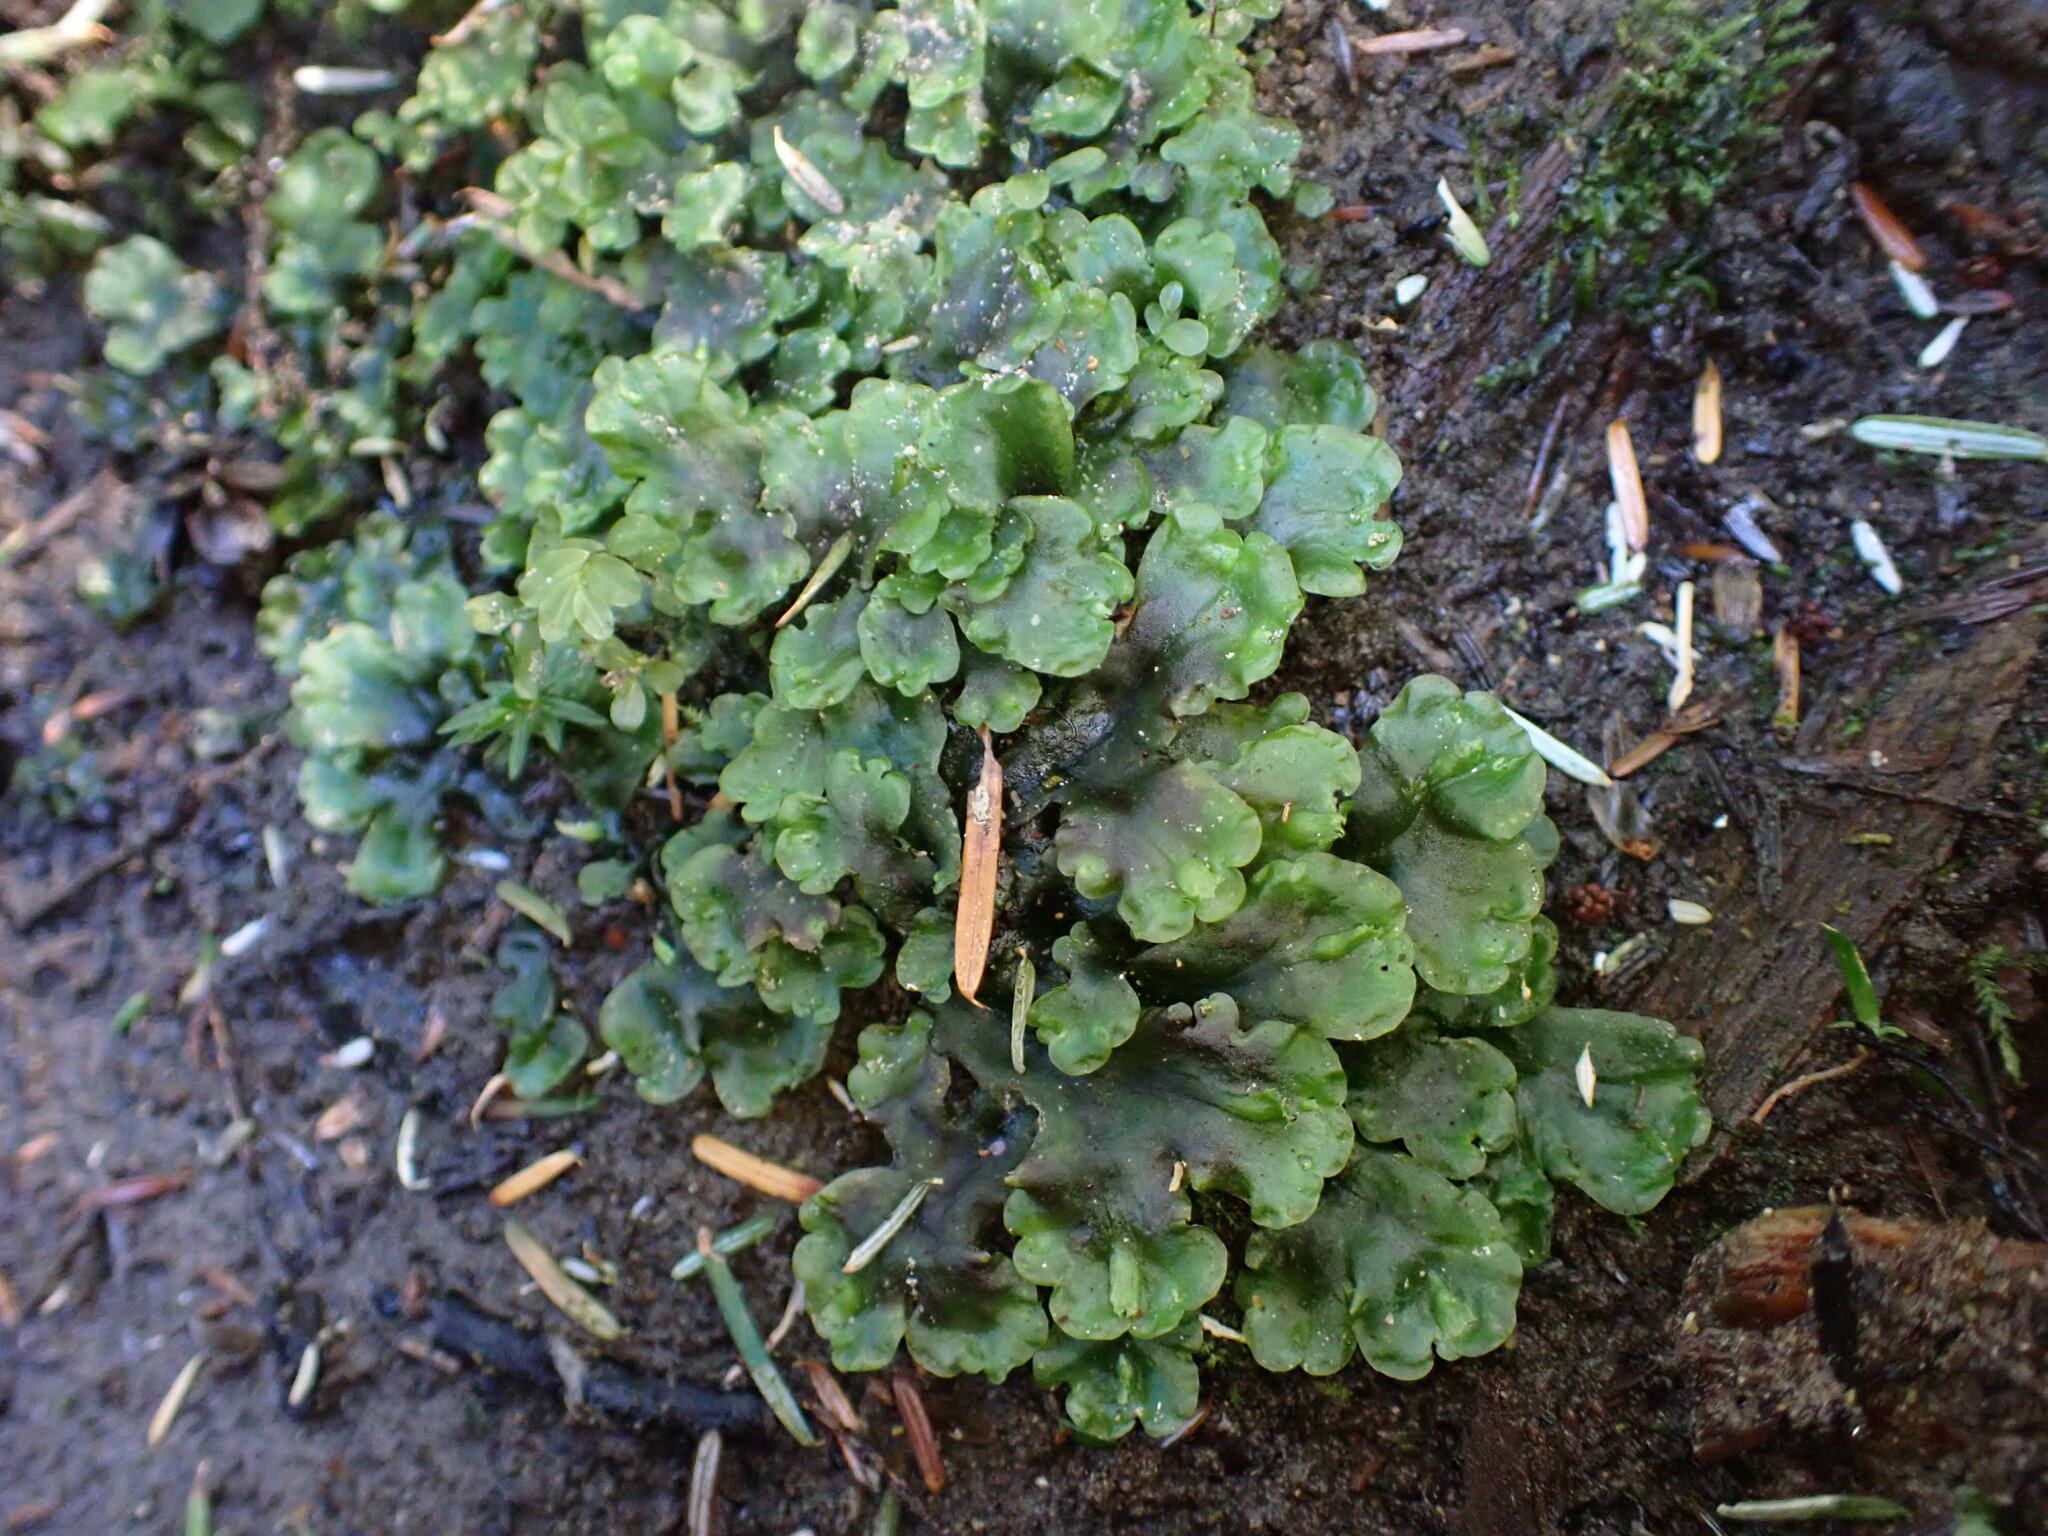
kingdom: Plantae
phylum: Marchantiophyta
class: Jungermanniopsida
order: Pelliales
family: Pelliaceae
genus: Pellia
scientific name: Pellia neesiana
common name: Nees  pellia
